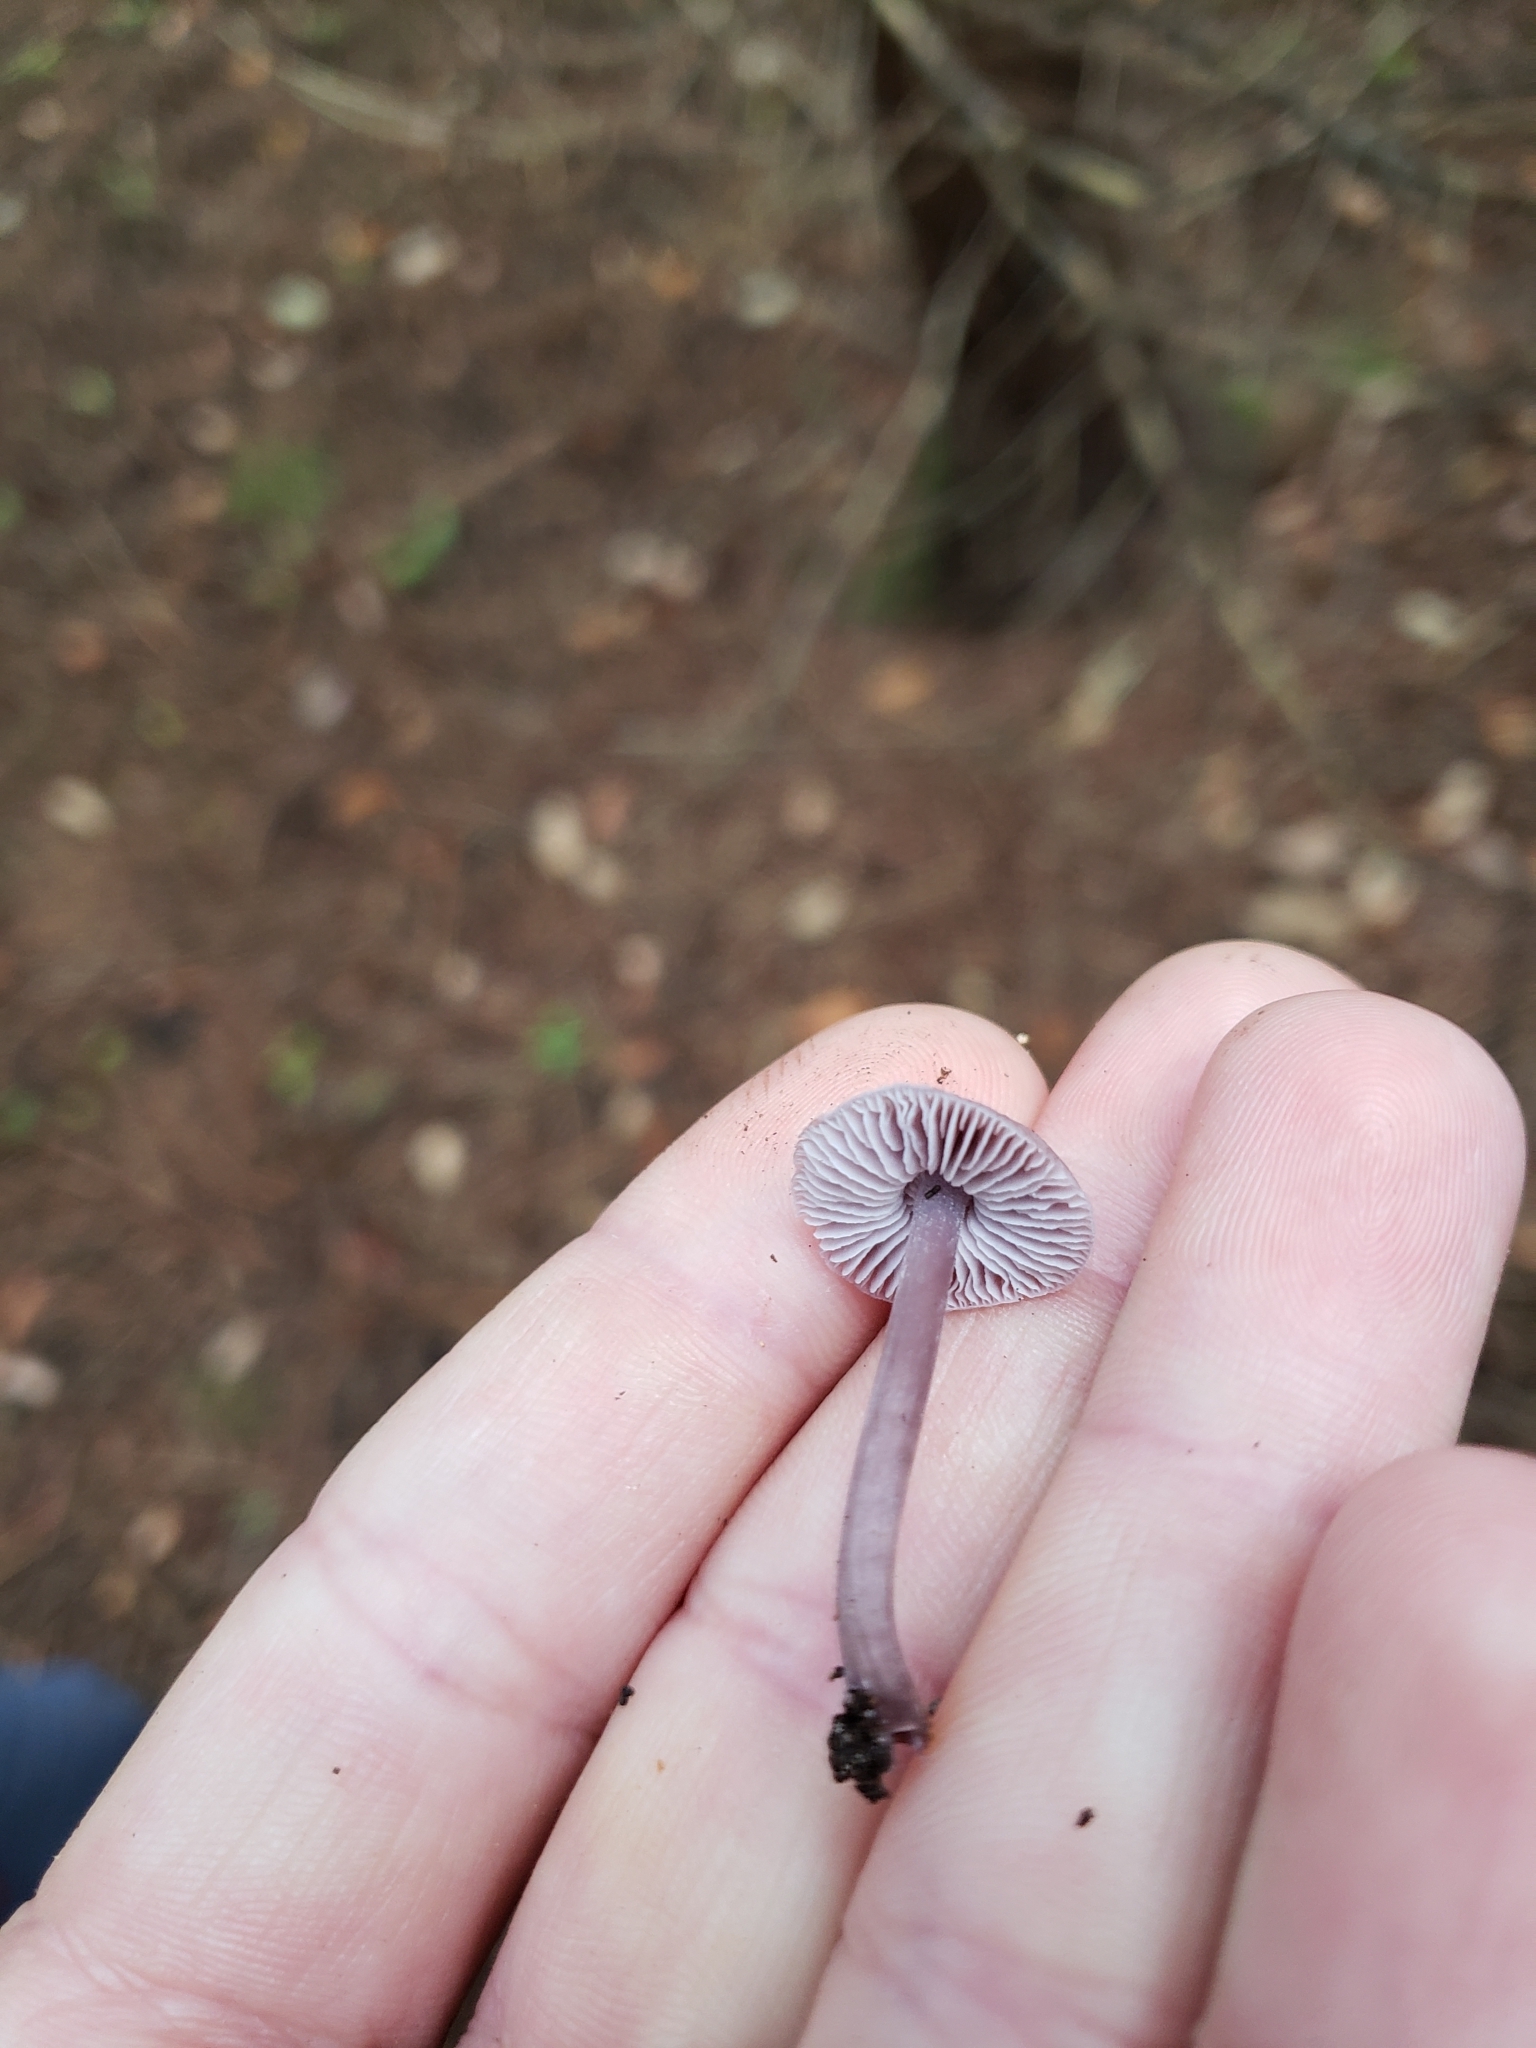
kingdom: Fungi
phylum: Basidiomycota
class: Agaricomycetes
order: Agaricales
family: Mycenaceae
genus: Mycena
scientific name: Mycena pura
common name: Lilac bonnet
